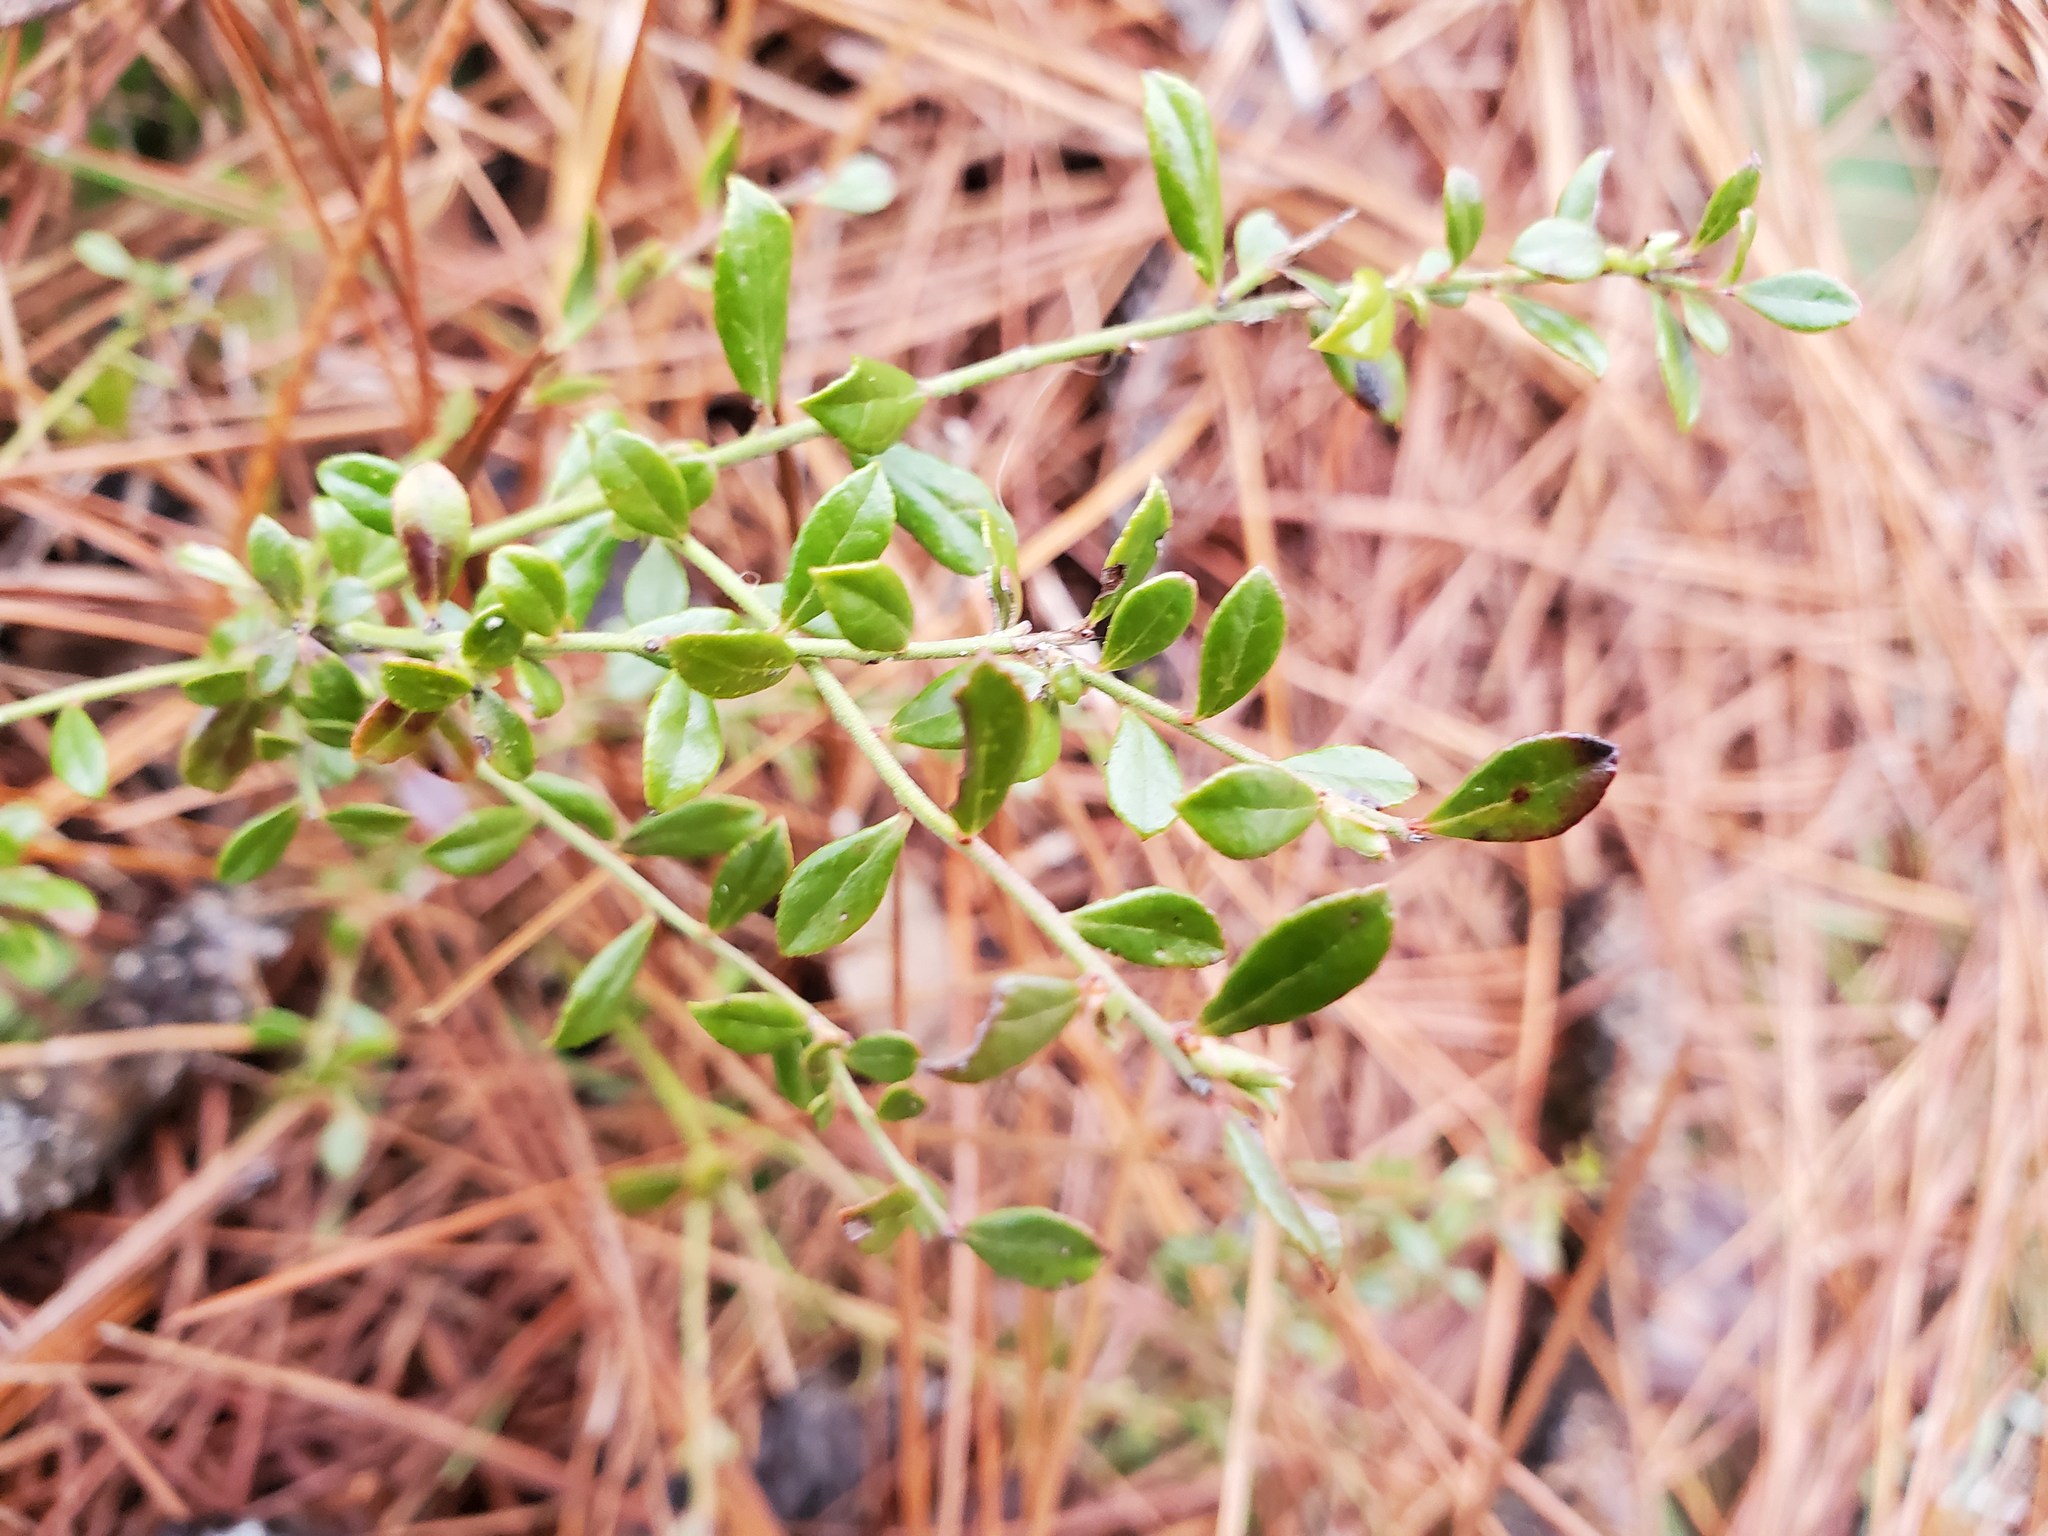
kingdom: Plantae
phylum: Tracheophyta
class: Magnoliopsida
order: Ericales
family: Ericaceae
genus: Vaccinium
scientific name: Vaccinium myrsinites
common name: Evergreen blueberry
